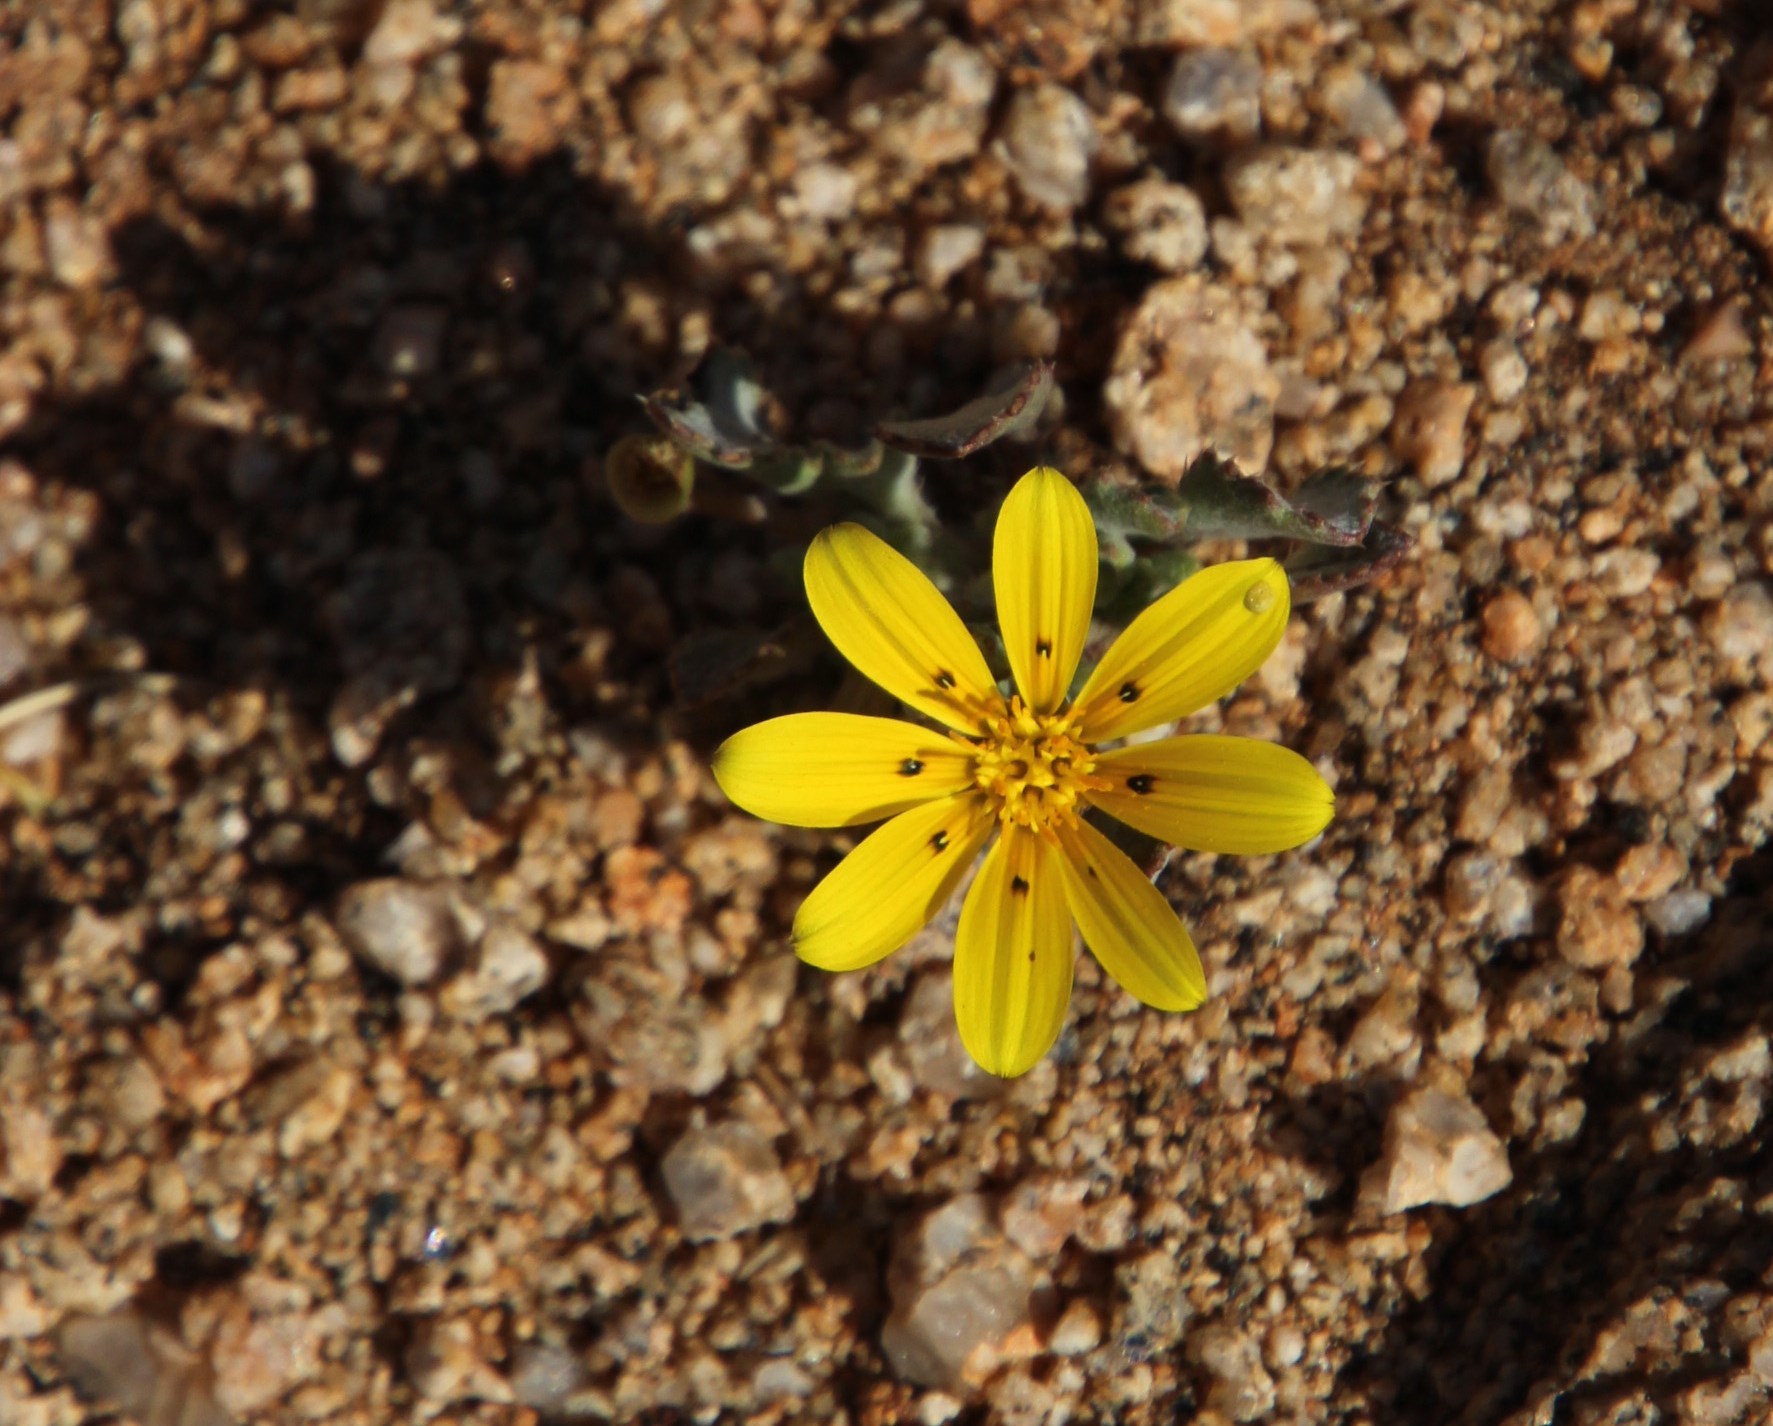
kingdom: Plantae
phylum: Tracheophyta
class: Magnoliopsida
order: Asterales
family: Asteraceae
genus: Gazania
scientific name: Gazania lichtensteinii
